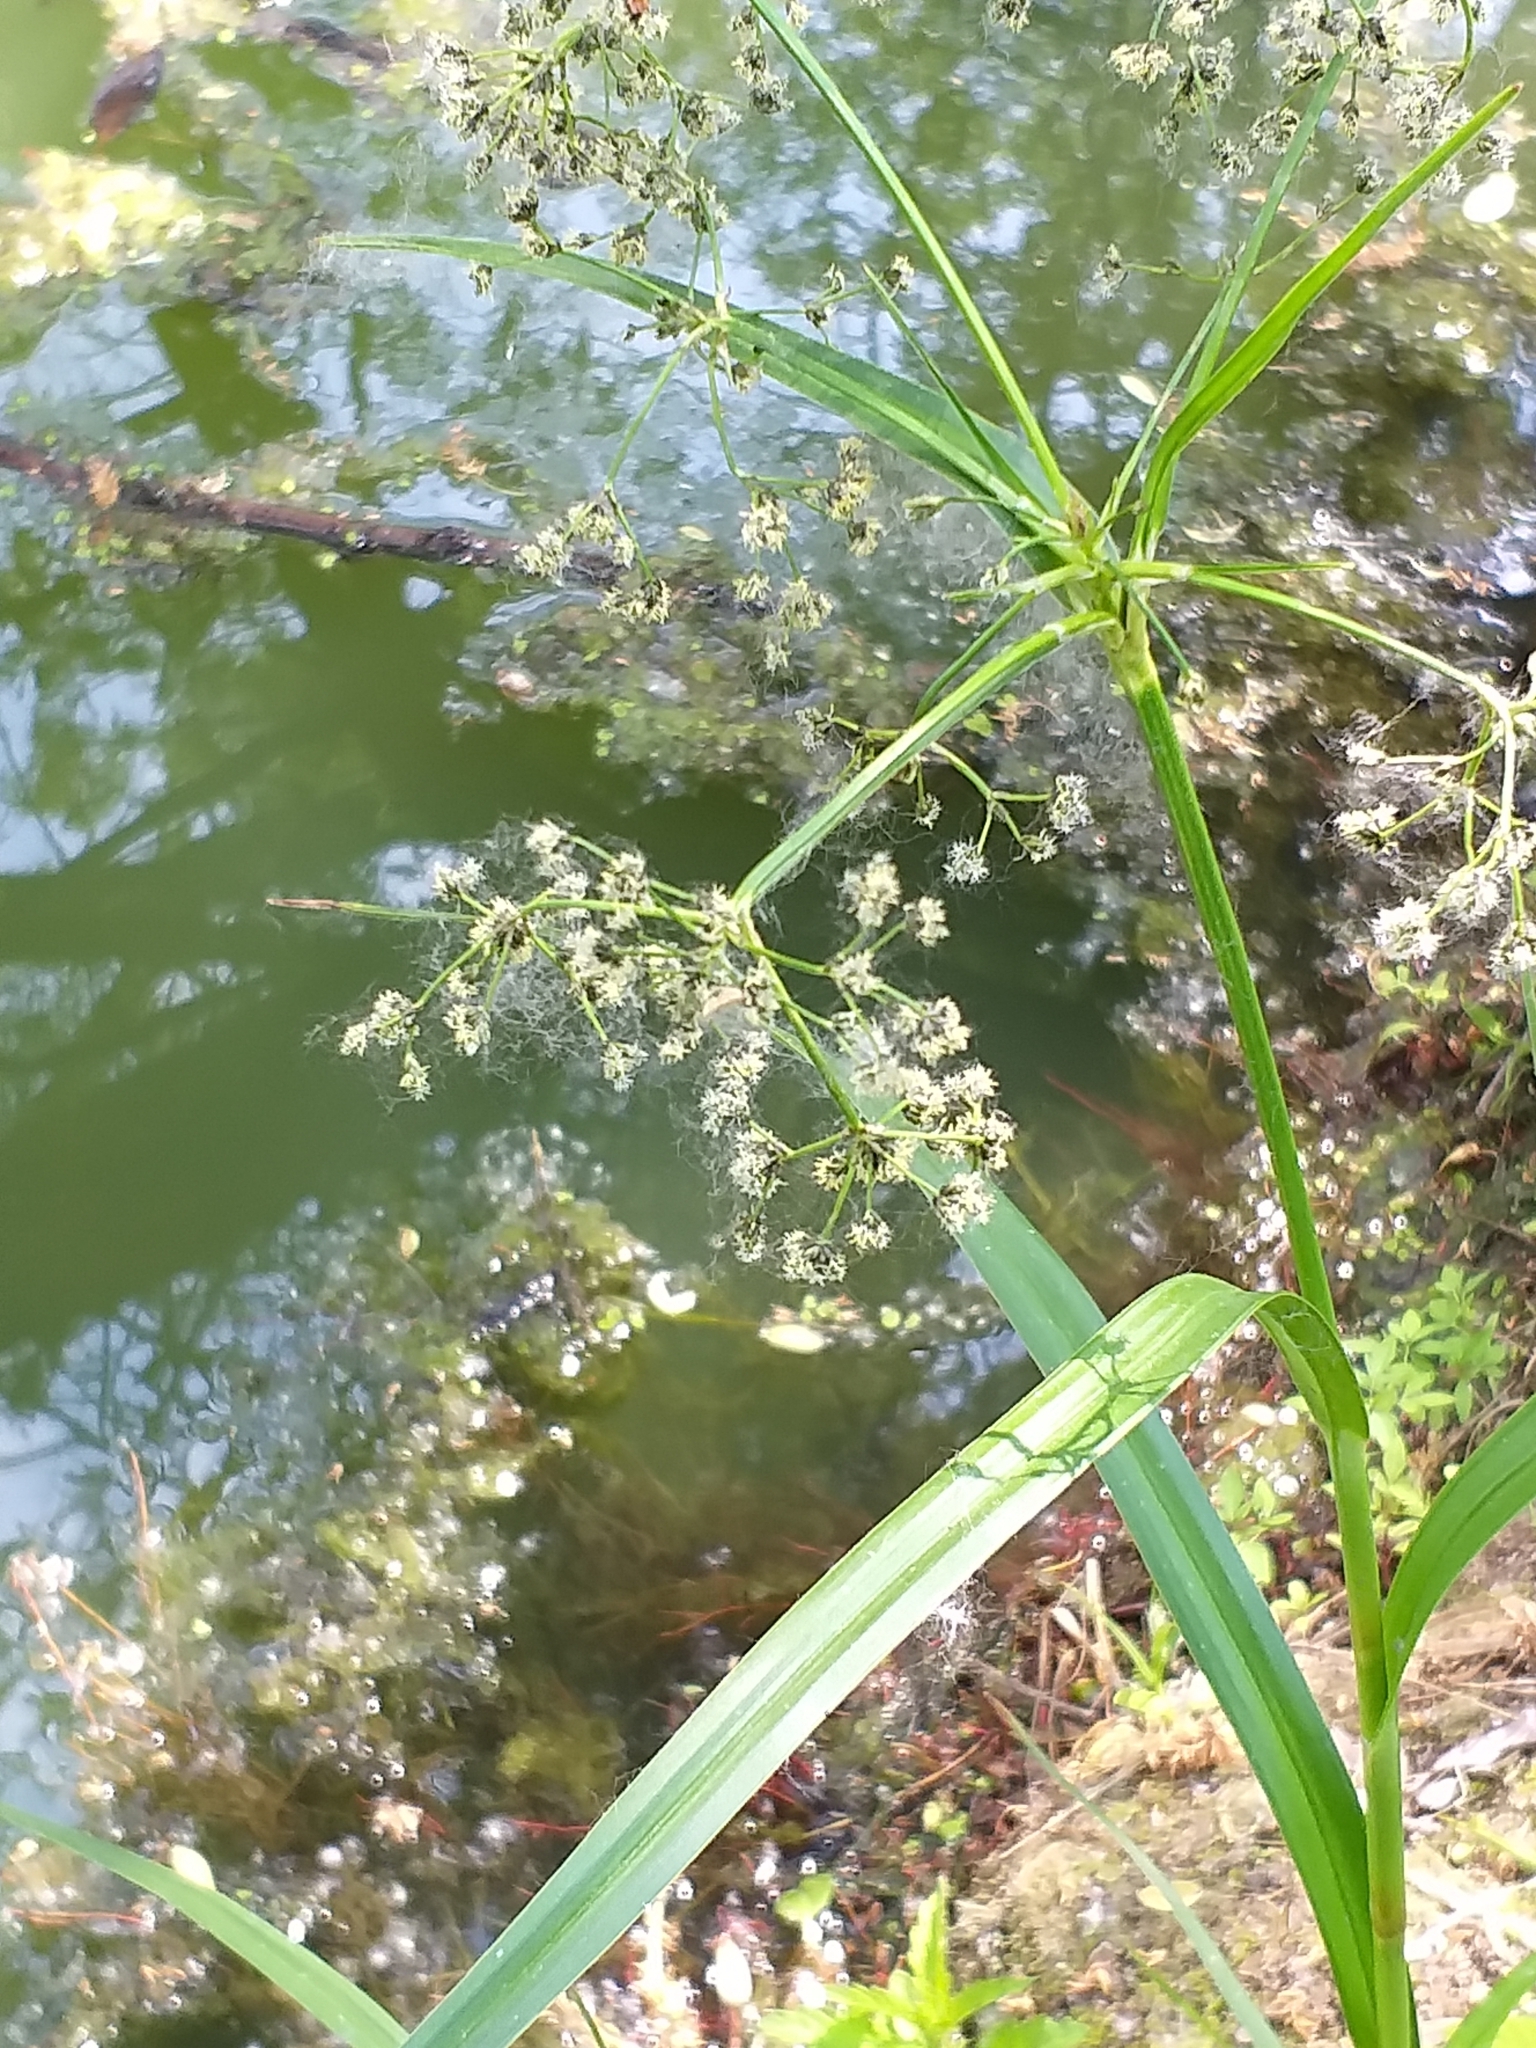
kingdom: Plantae
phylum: Tracheophyta
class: Liliopsida
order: Poales
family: Cyperaceae
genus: Scirpus
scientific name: Scirpus sylvaticus
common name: Wood club-rush
